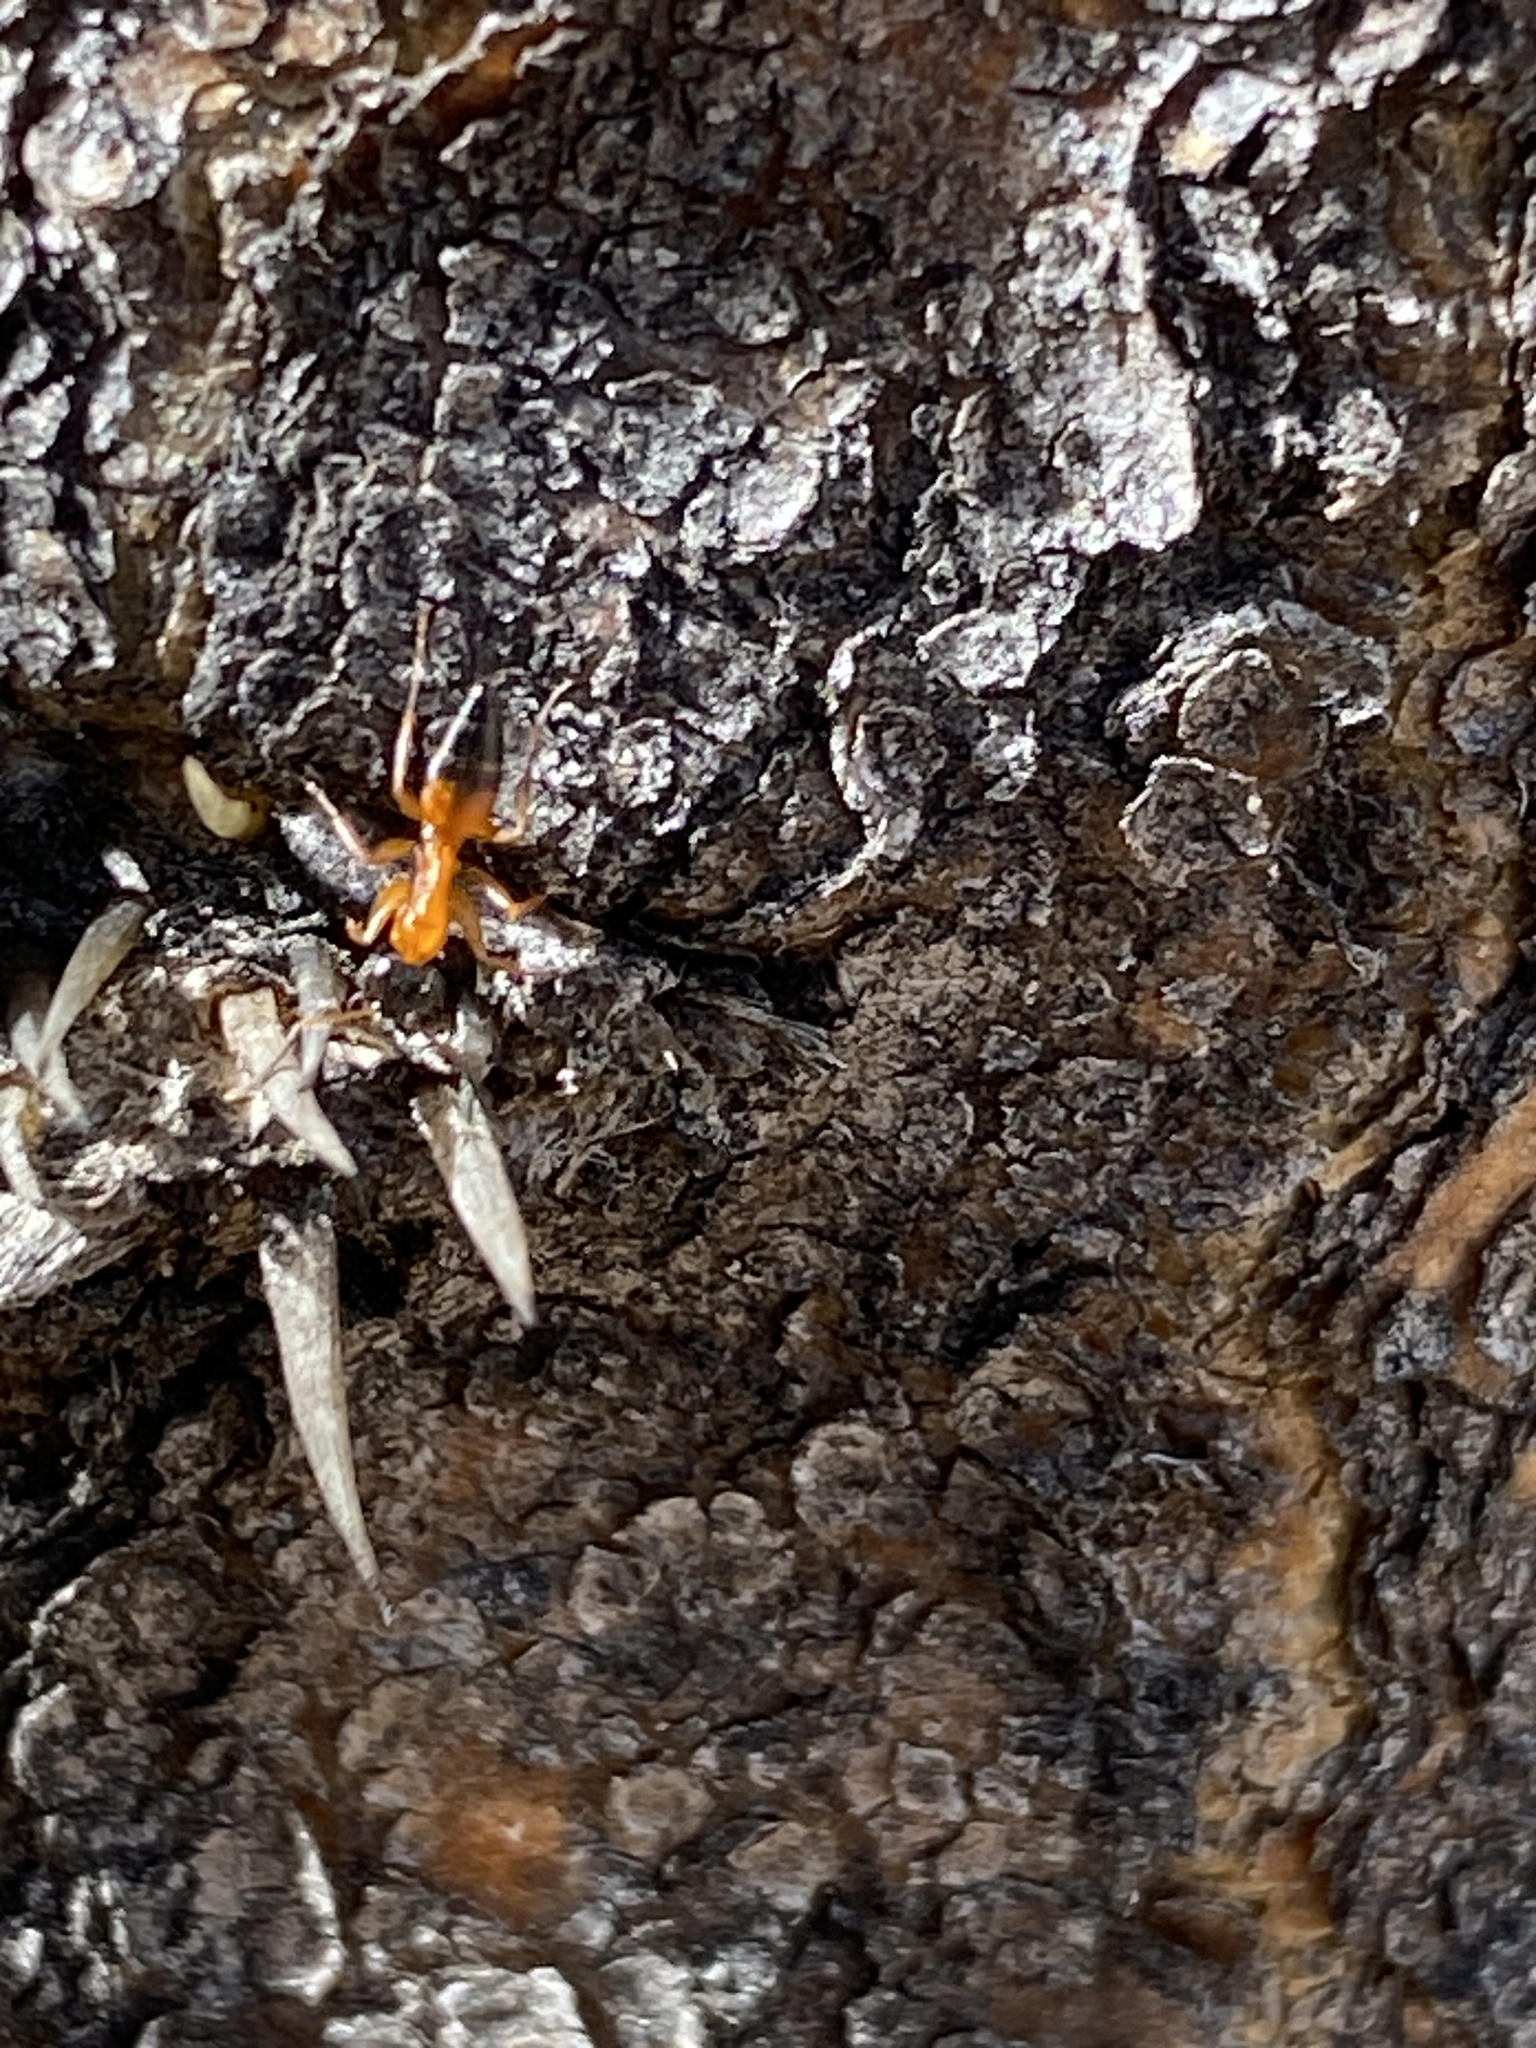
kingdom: Animalia
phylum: Arthropoda
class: Insecta
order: Hymenoptera
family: Formicidae
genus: Opisthopsis
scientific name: Opisthopsis rufithorax
